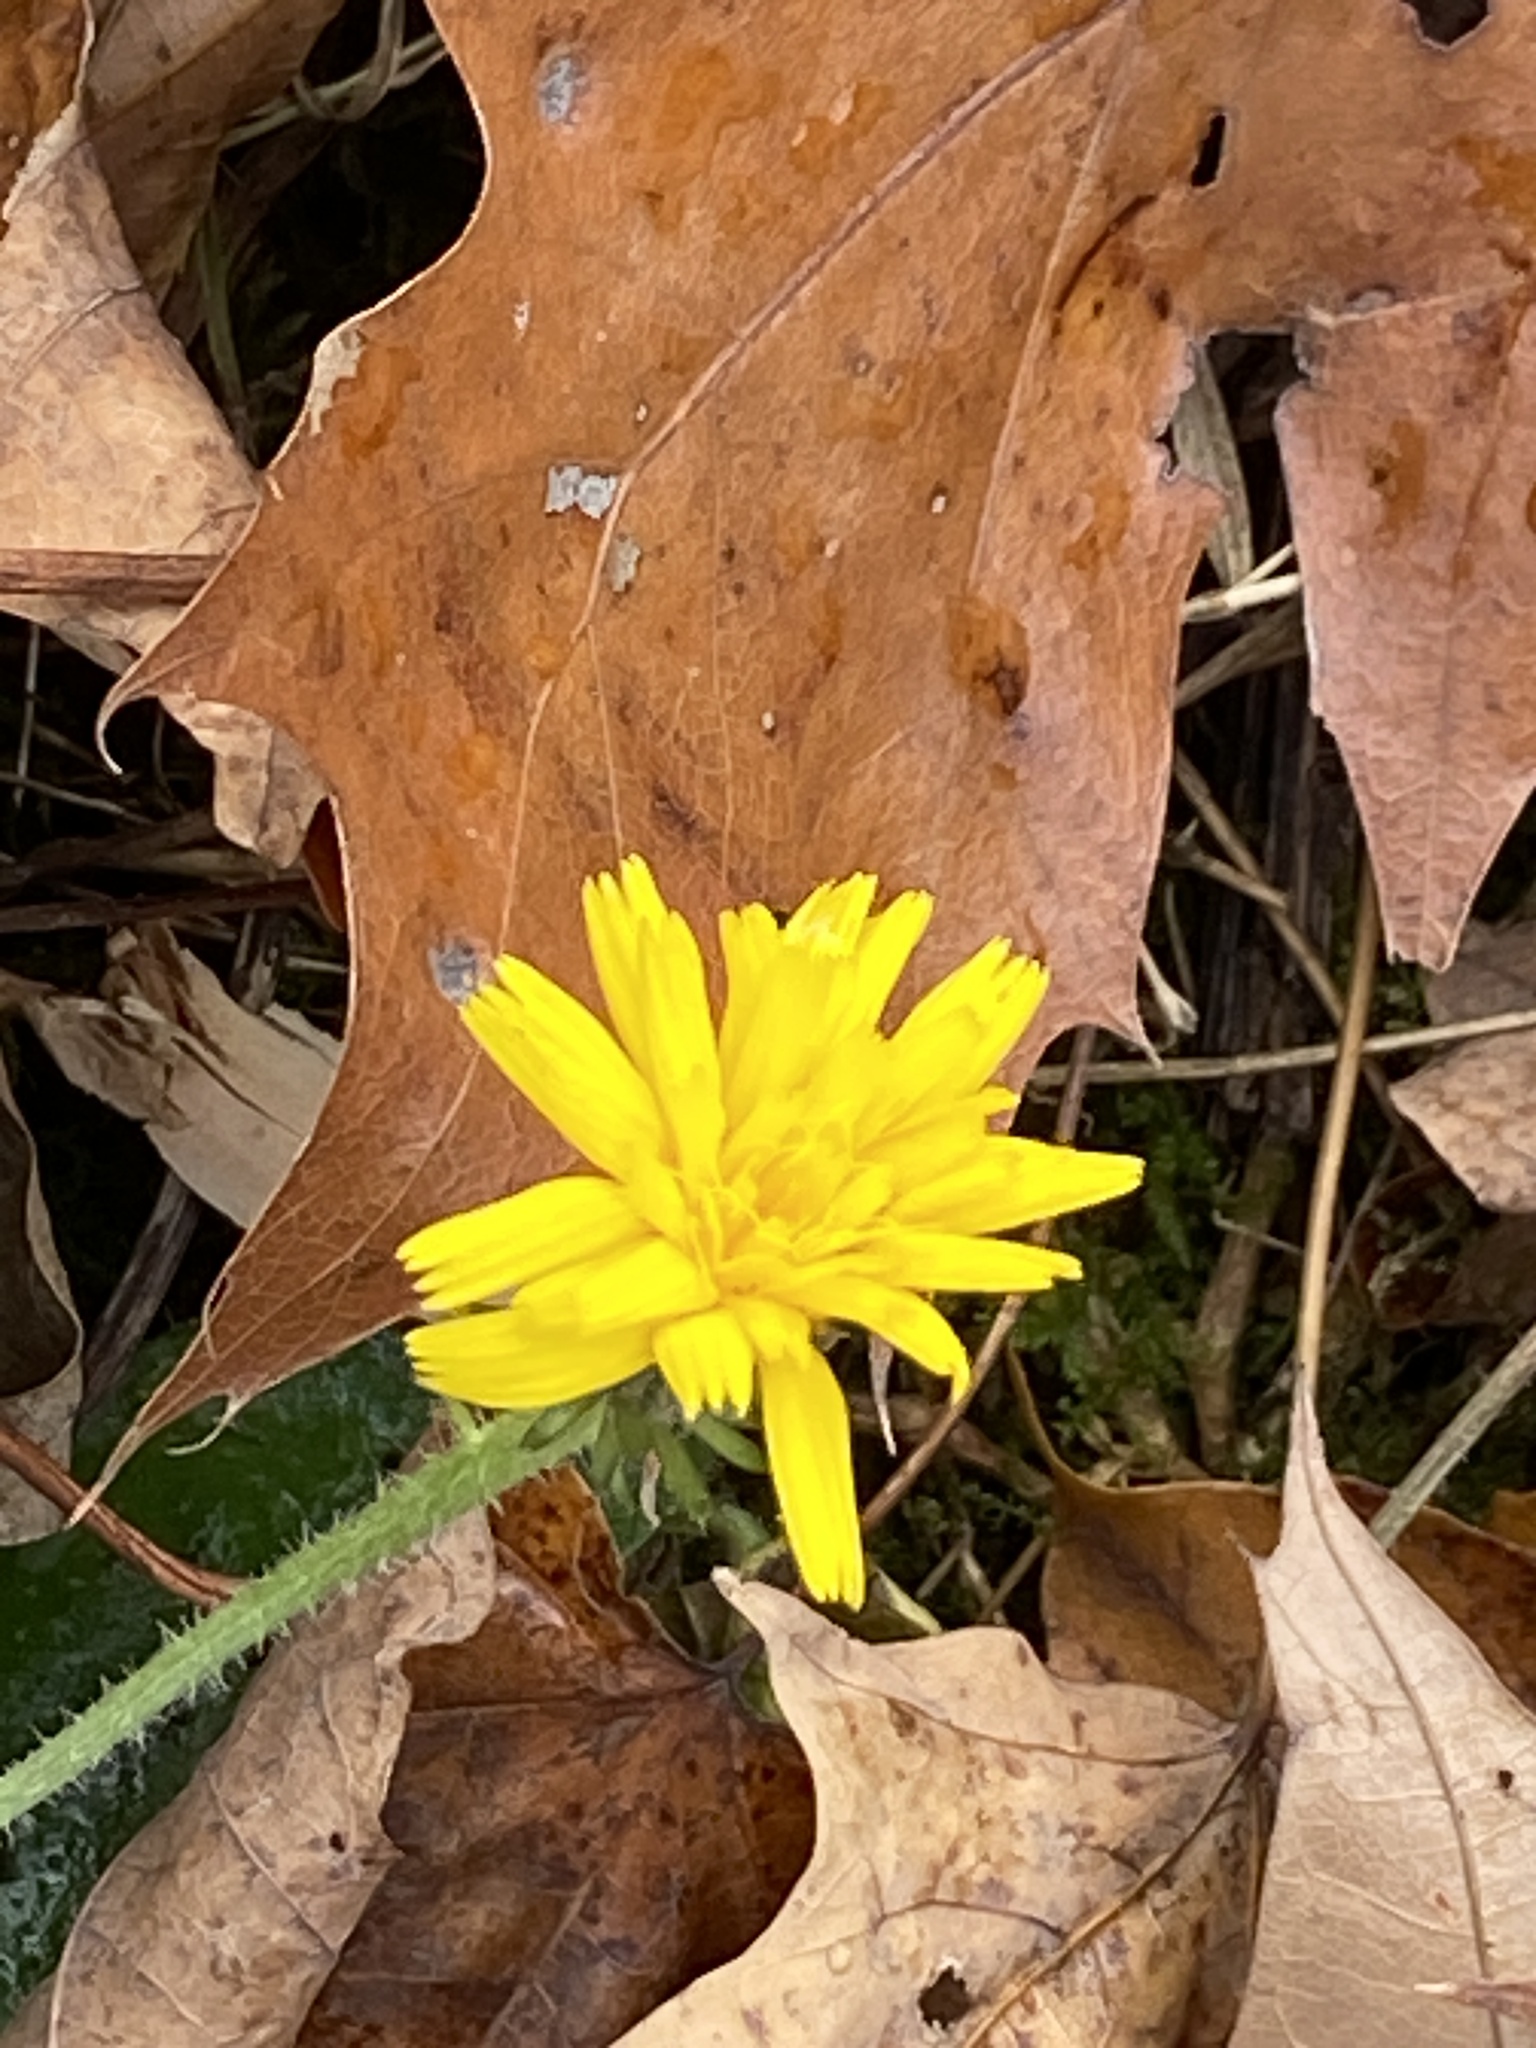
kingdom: Plantae
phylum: Tracheophyta
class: Magnoliopsida
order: Asterales
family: Asteraceae
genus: Picris
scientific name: Picris hieracioides
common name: Hawkweed oxtongue
